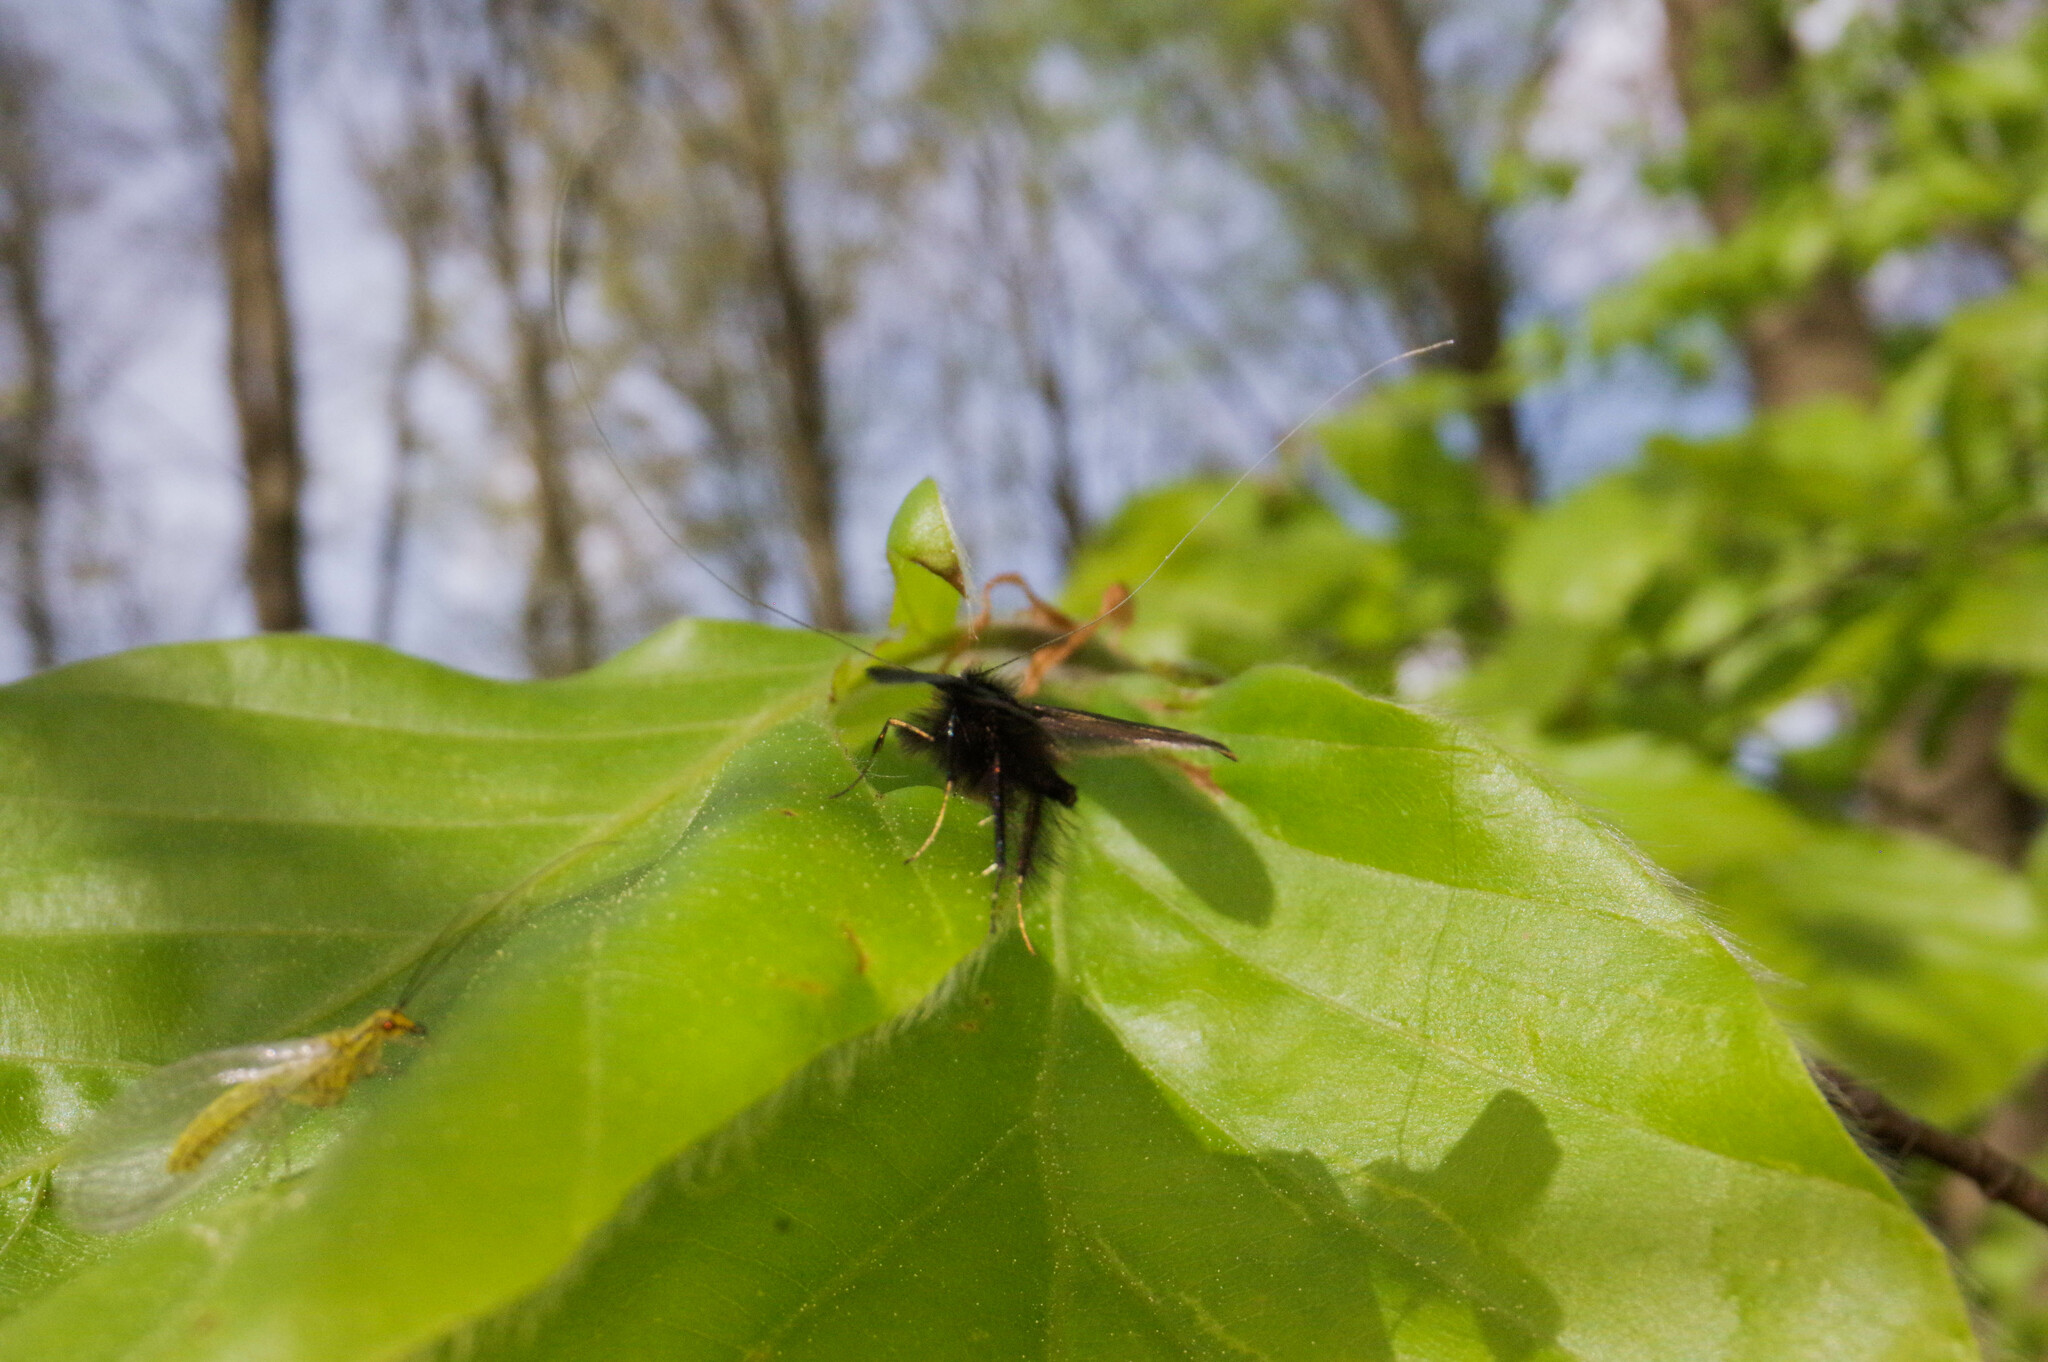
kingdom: Animalia
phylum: Arthropoda
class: Insecta
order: Lepidoptera
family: Adelidae
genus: Adela
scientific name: Adela viridella
